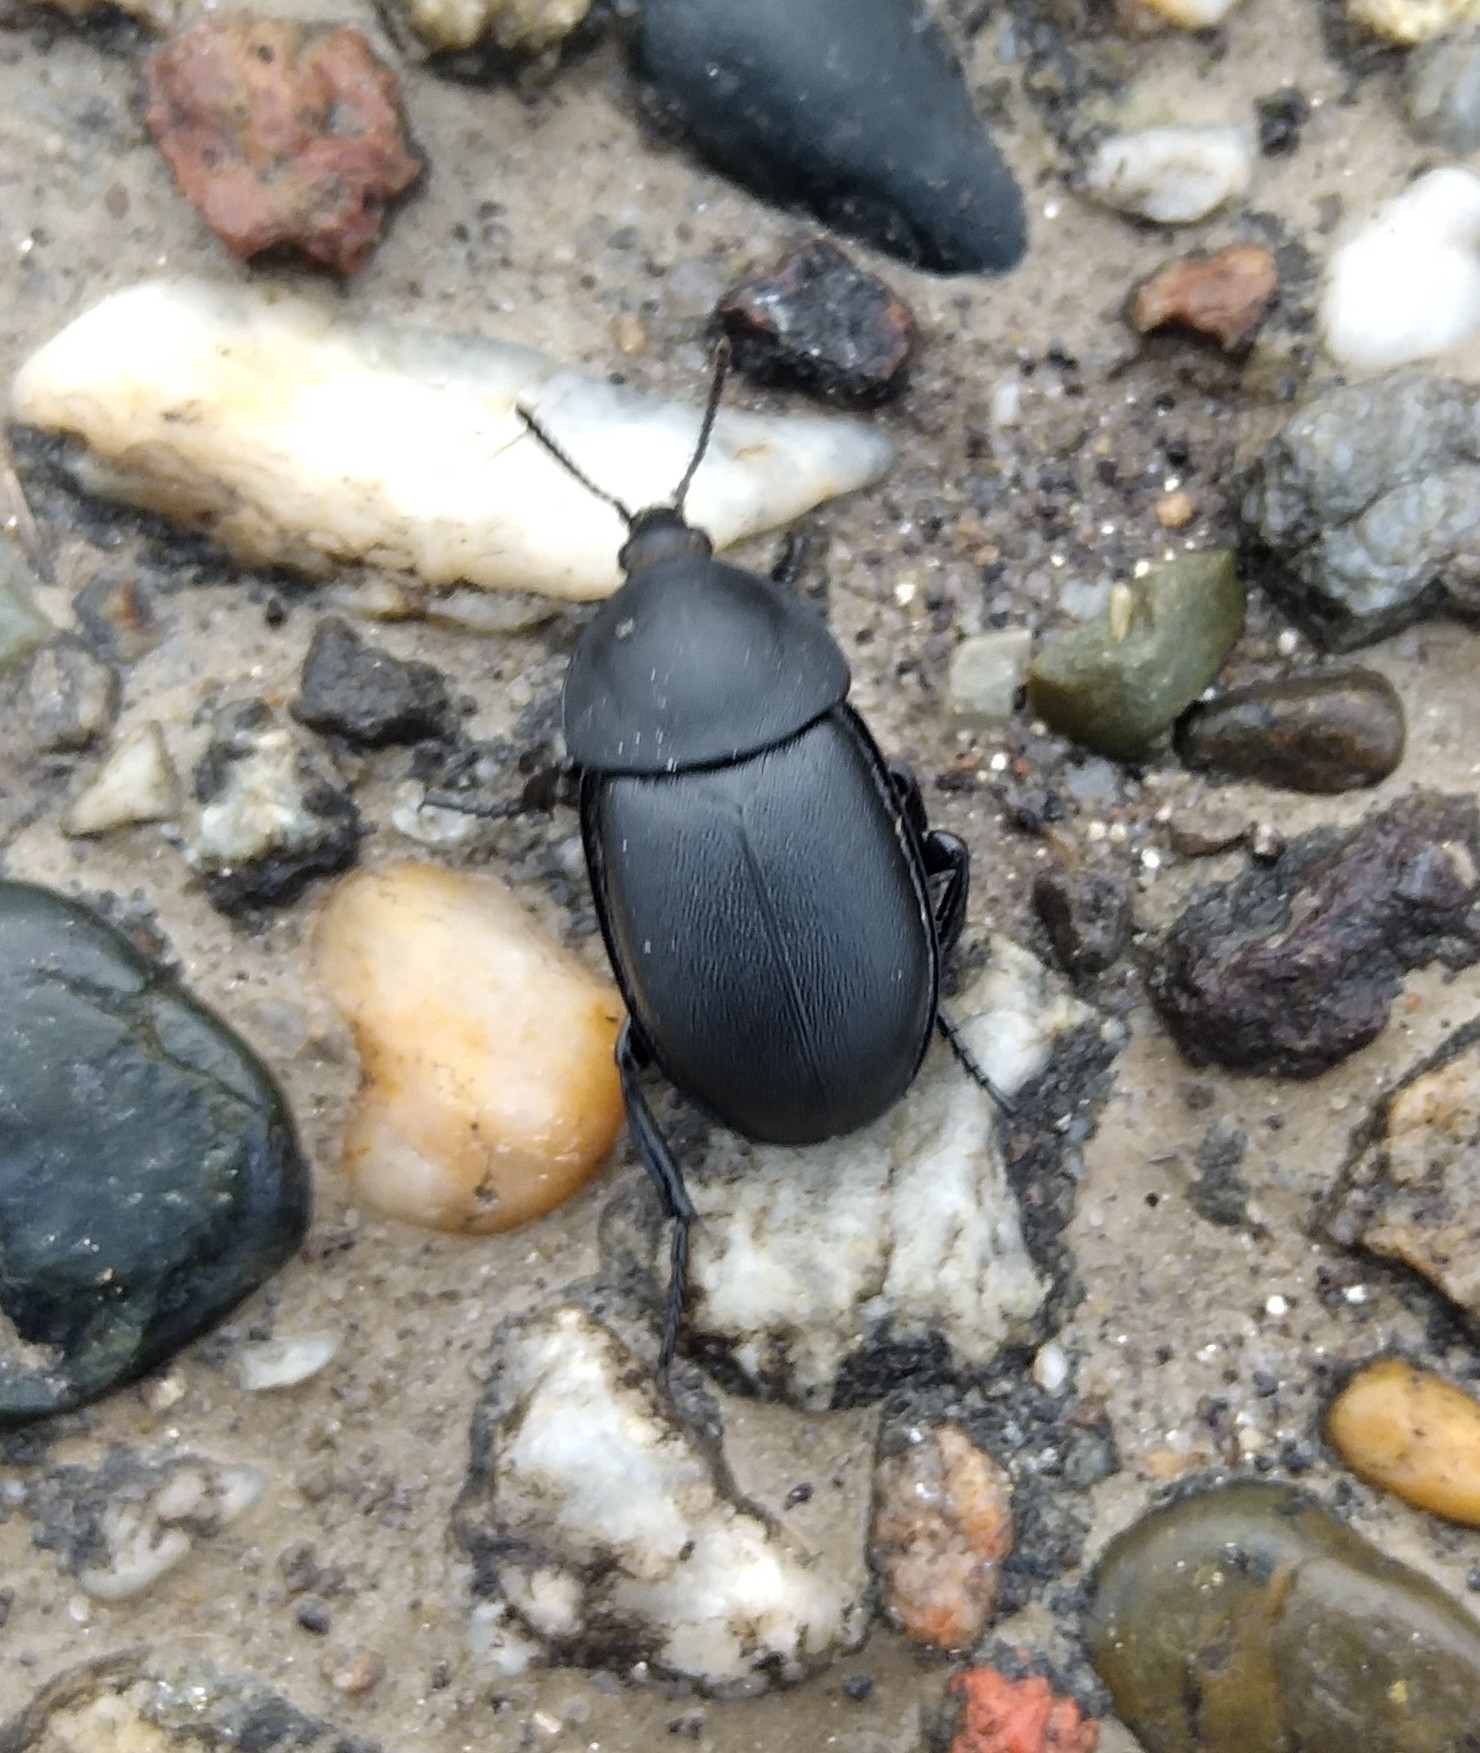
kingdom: Animalia
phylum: Arthropoda
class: Insecta
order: Coleoptera
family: Staphylinidae
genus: Silpha
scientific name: Silpha laevigata
